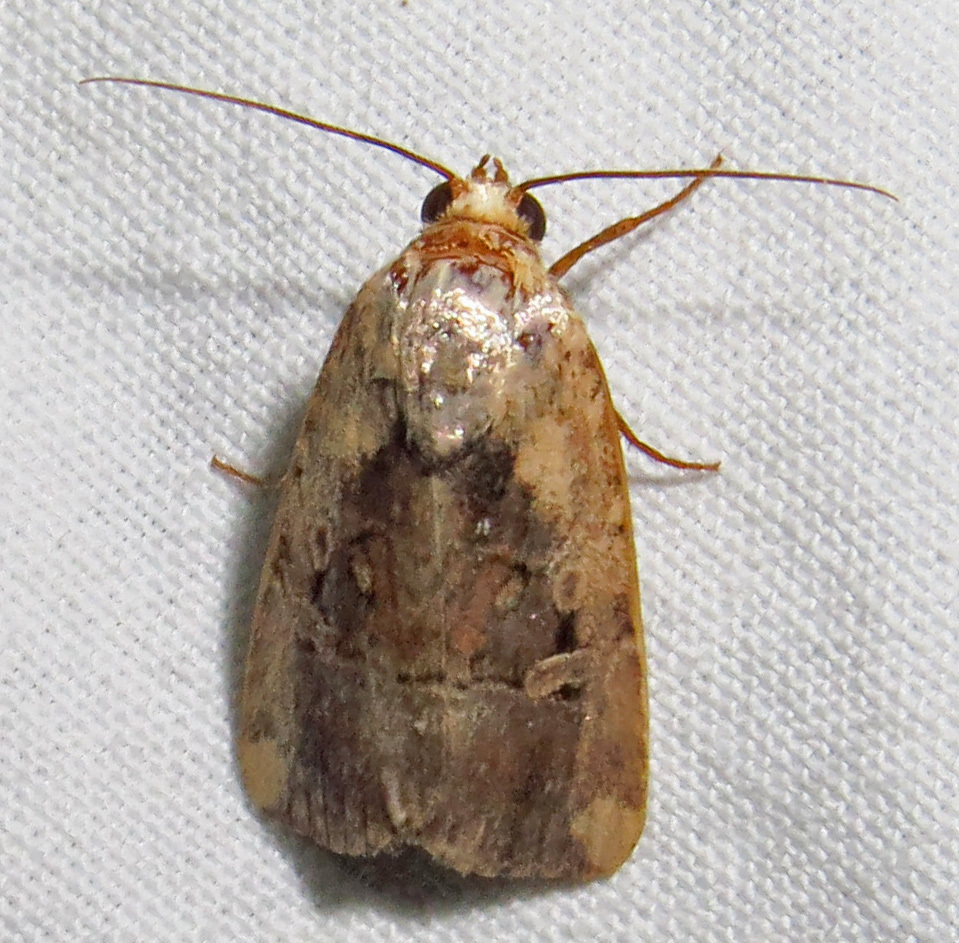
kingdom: Animalia
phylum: Arthropoda
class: Insecta
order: Lepidoptera
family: Noctuidae
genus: Elaphria
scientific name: Elaphria chalcedonia
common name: Chalcedony midget
